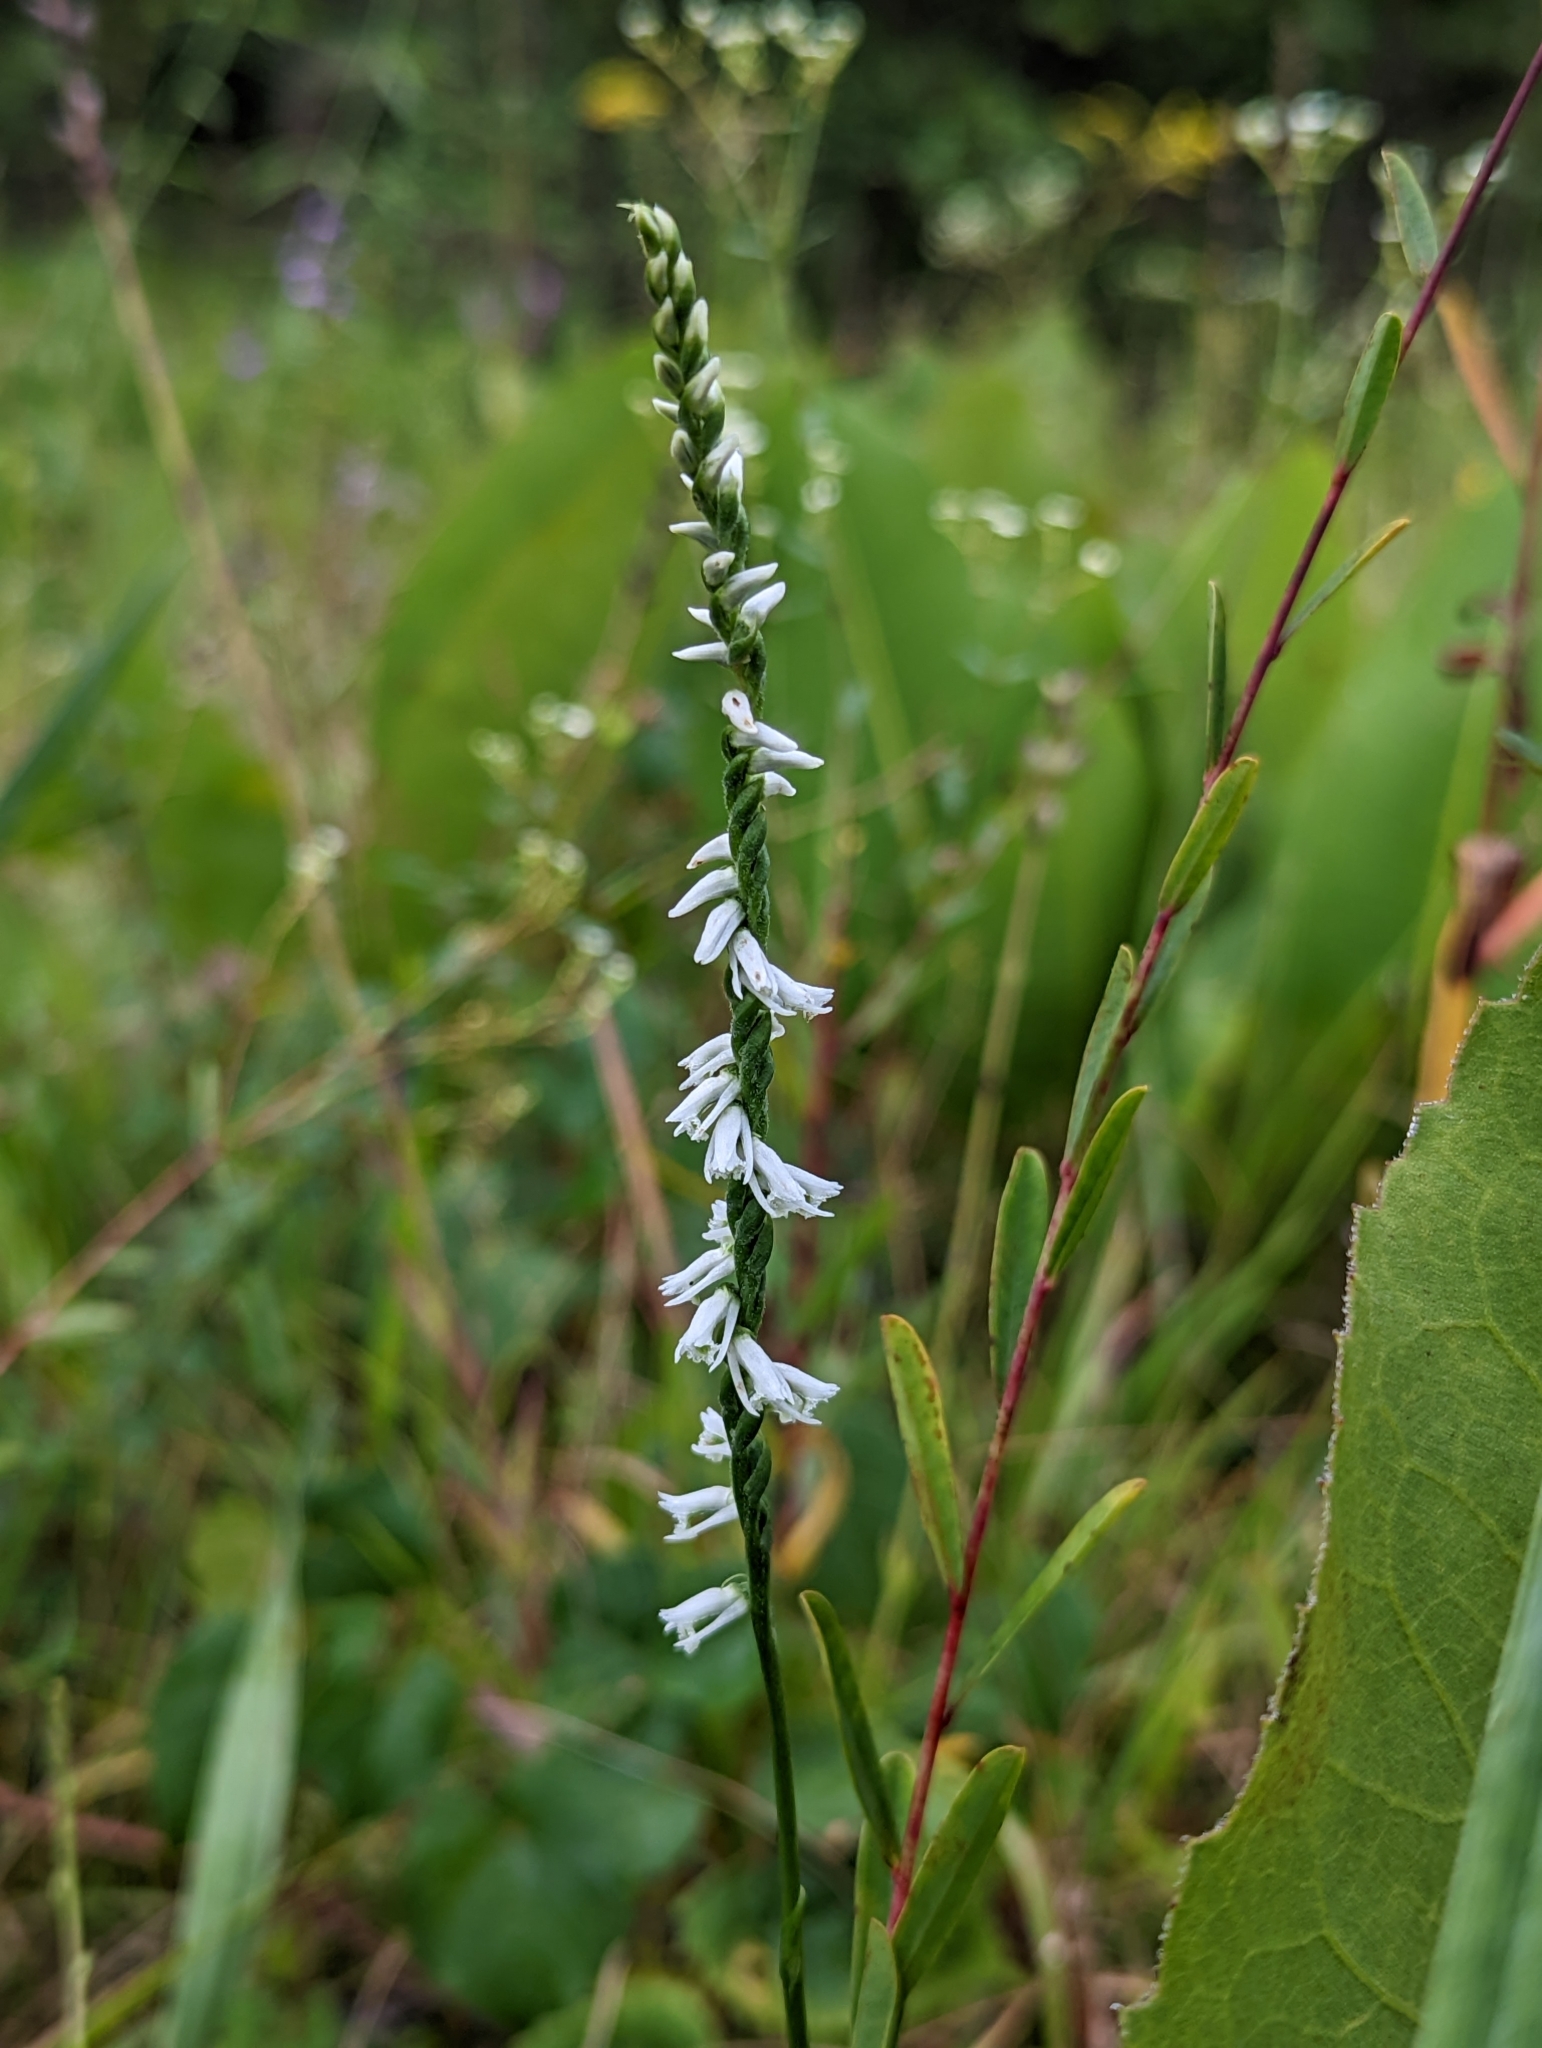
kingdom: Plantae
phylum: Tracheophyta
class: Liliopsida
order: Asparagales
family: Orchidaceae
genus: Spiranthes
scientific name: Spiranthes lacera
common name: Northern slender ladies'-tresses
